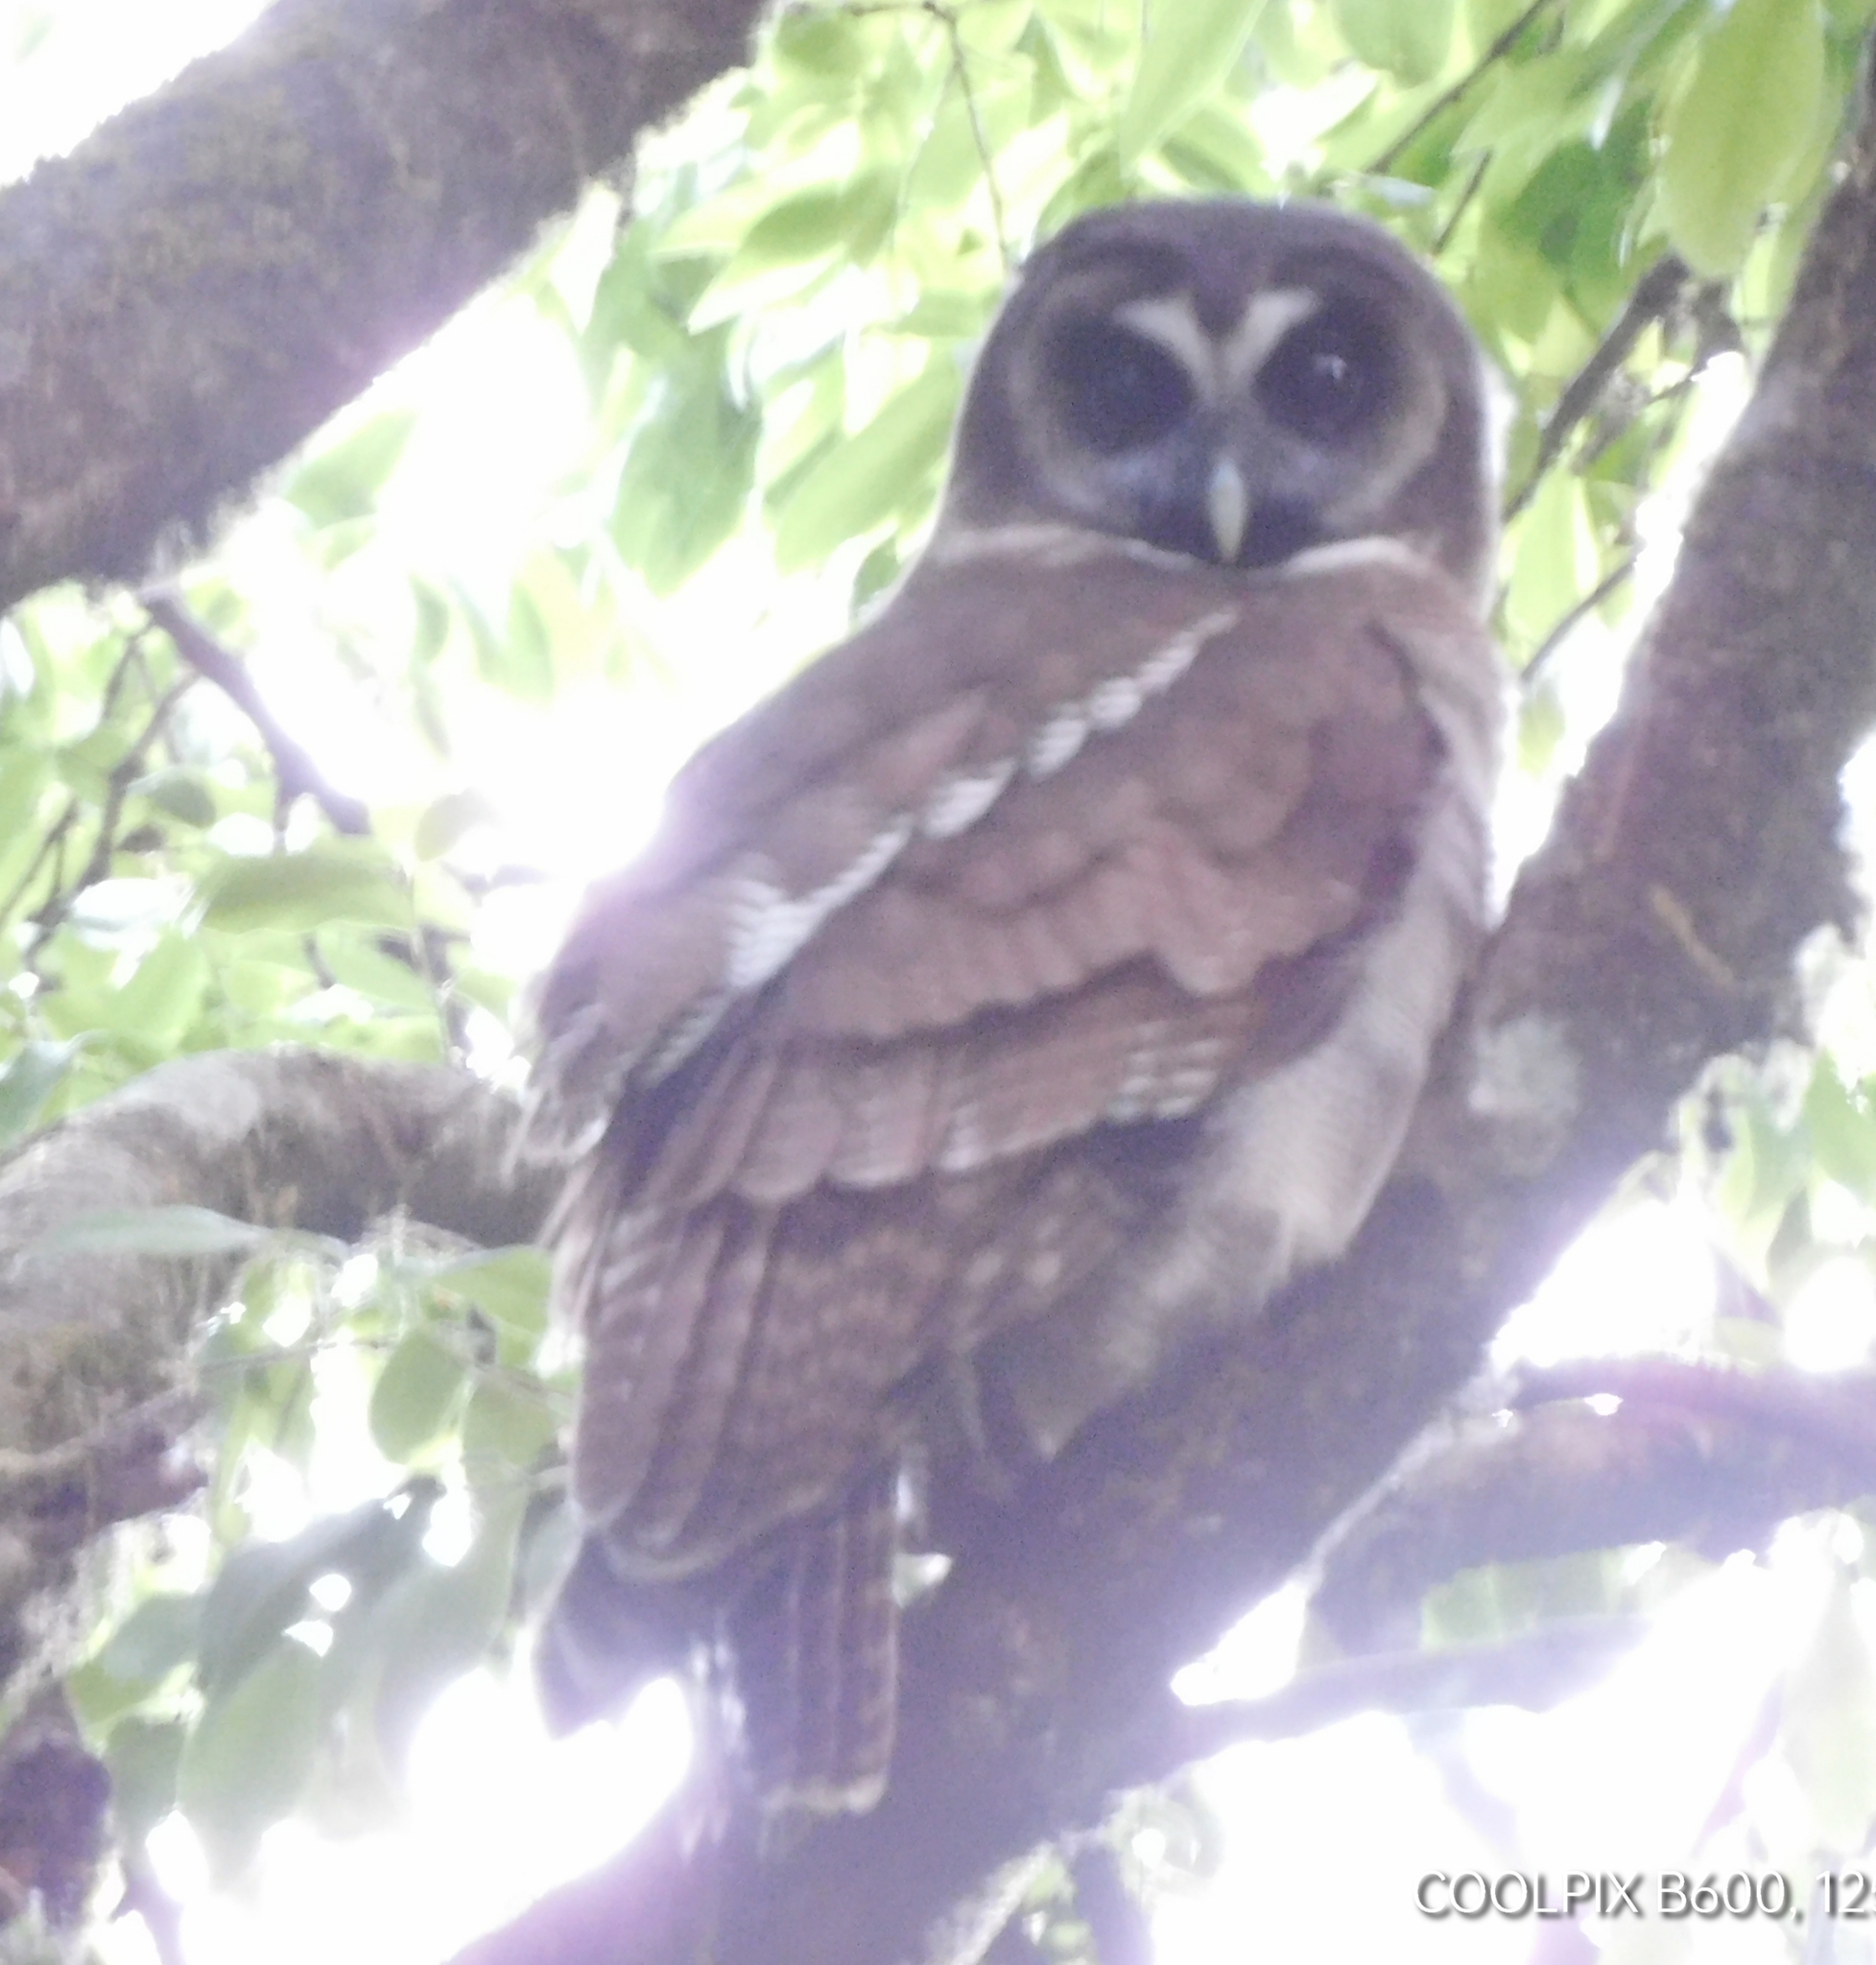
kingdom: Animalia
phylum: Chordata
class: Aves
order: Strigiformes
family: Strigidae
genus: Strix
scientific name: Strix leptogrammica
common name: Brown wood owl
